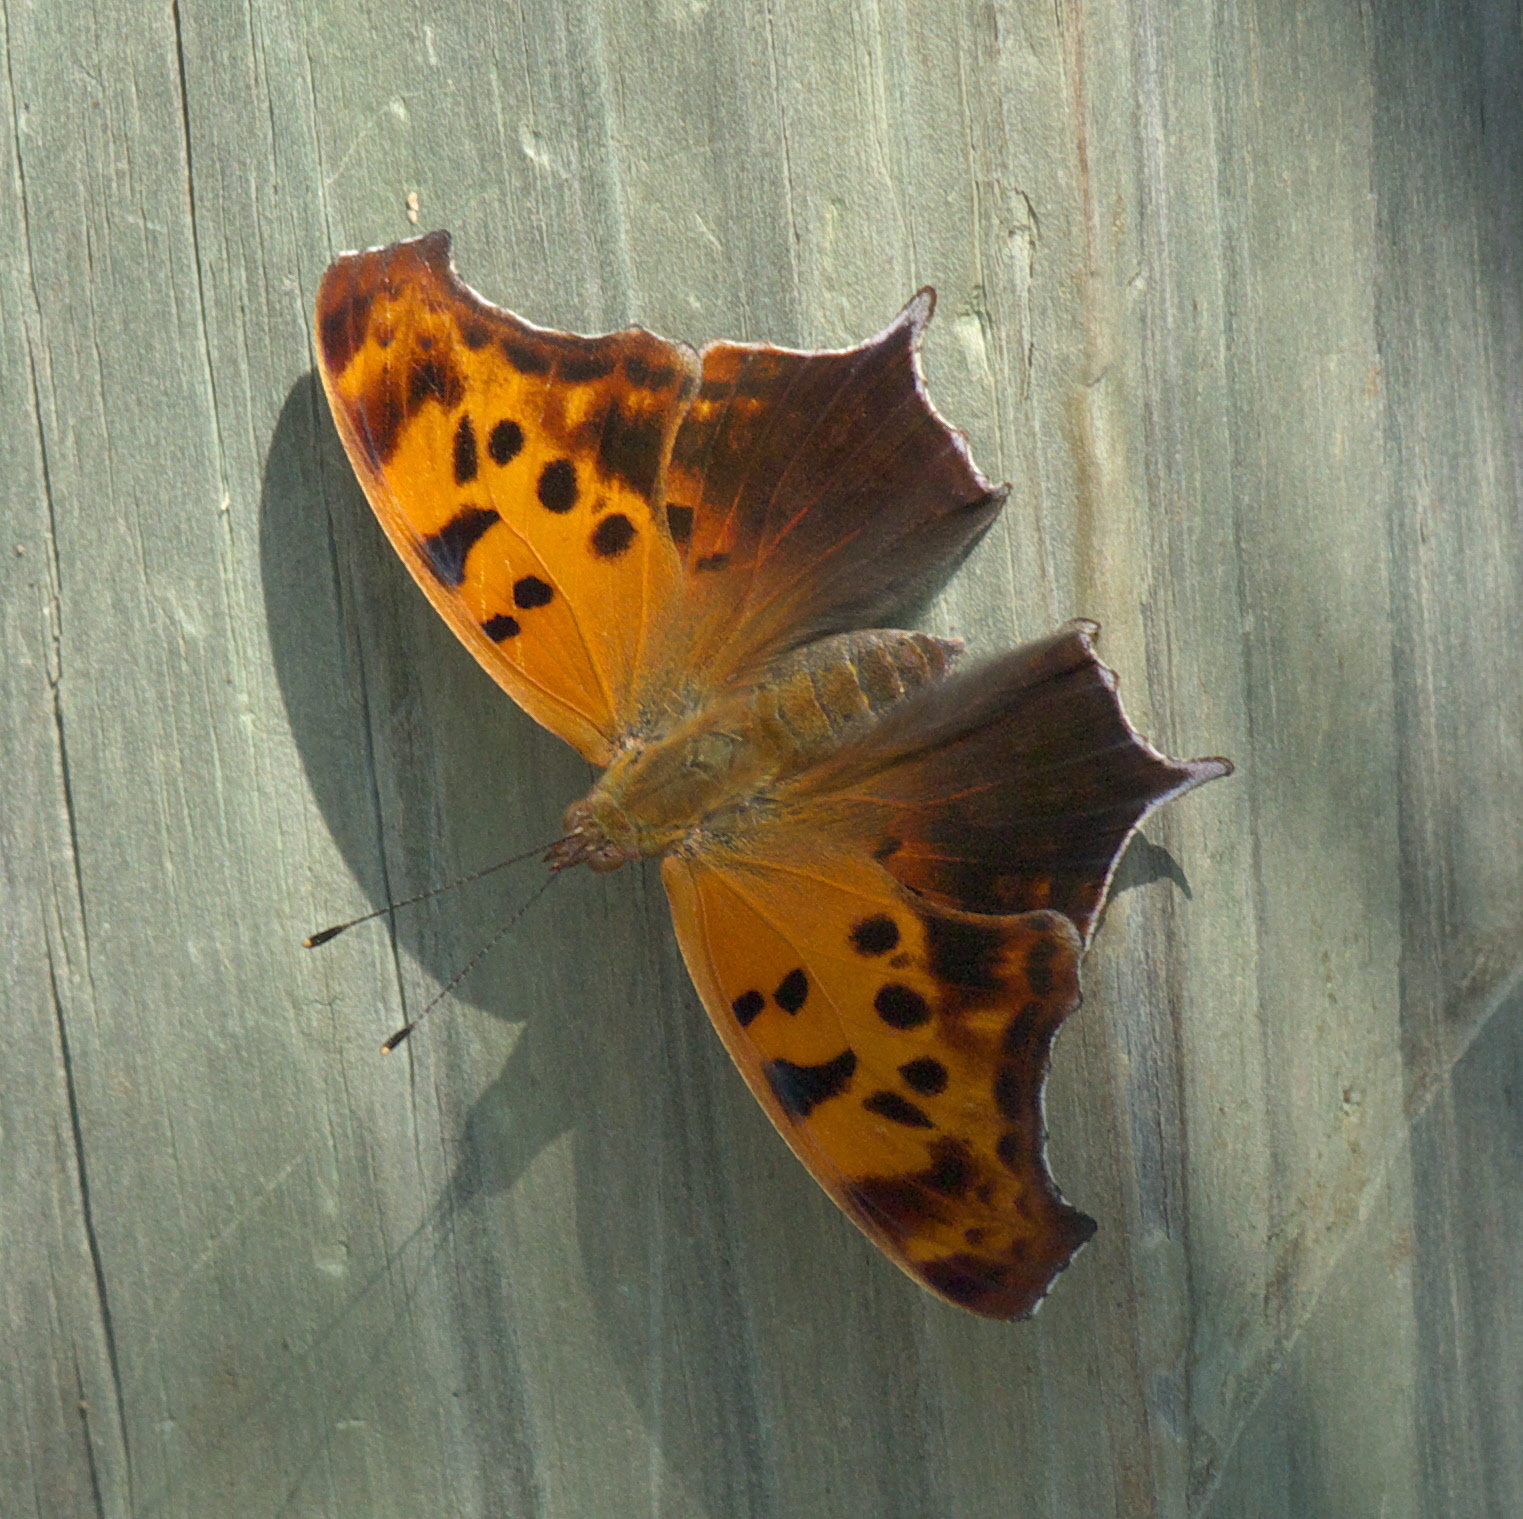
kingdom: Animalia
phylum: Arthropoda
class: Insecta
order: Lepidoptera
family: Nymphalidae
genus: Polygonia
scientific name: Polygonia interrogationis
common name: Question mark
